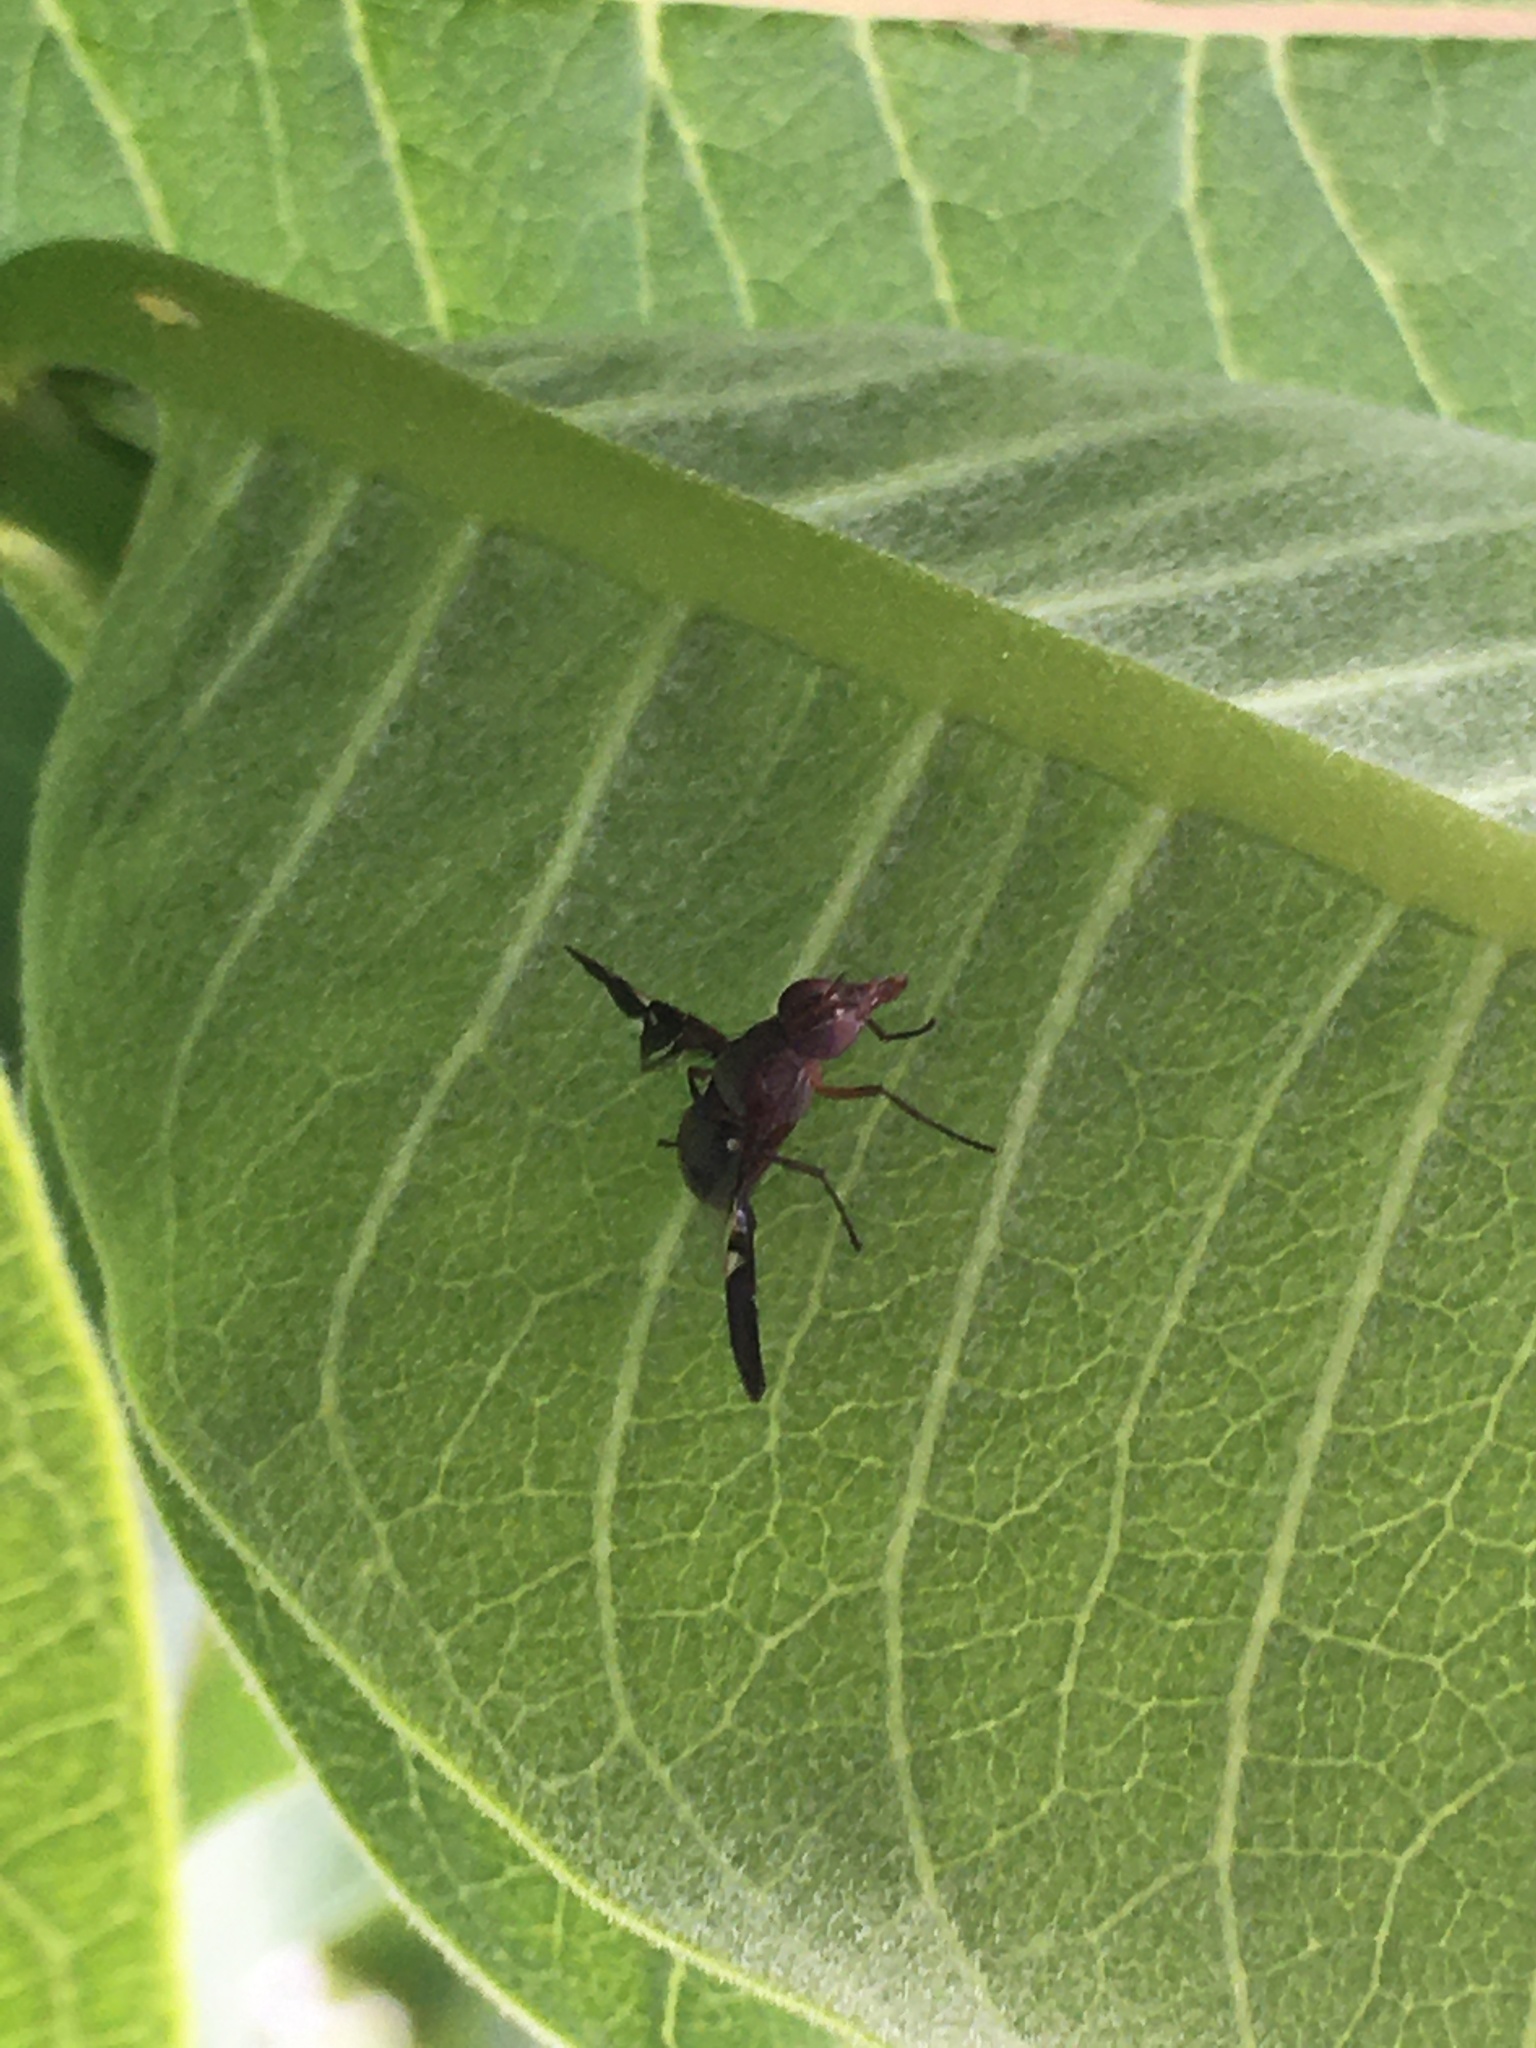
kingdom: Animalia
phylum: Arthropoda
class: Insecta
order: Diptera
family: Ulidiidae
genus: Delphinia
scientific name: Delphinia picta
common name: Common picture-winged fly
